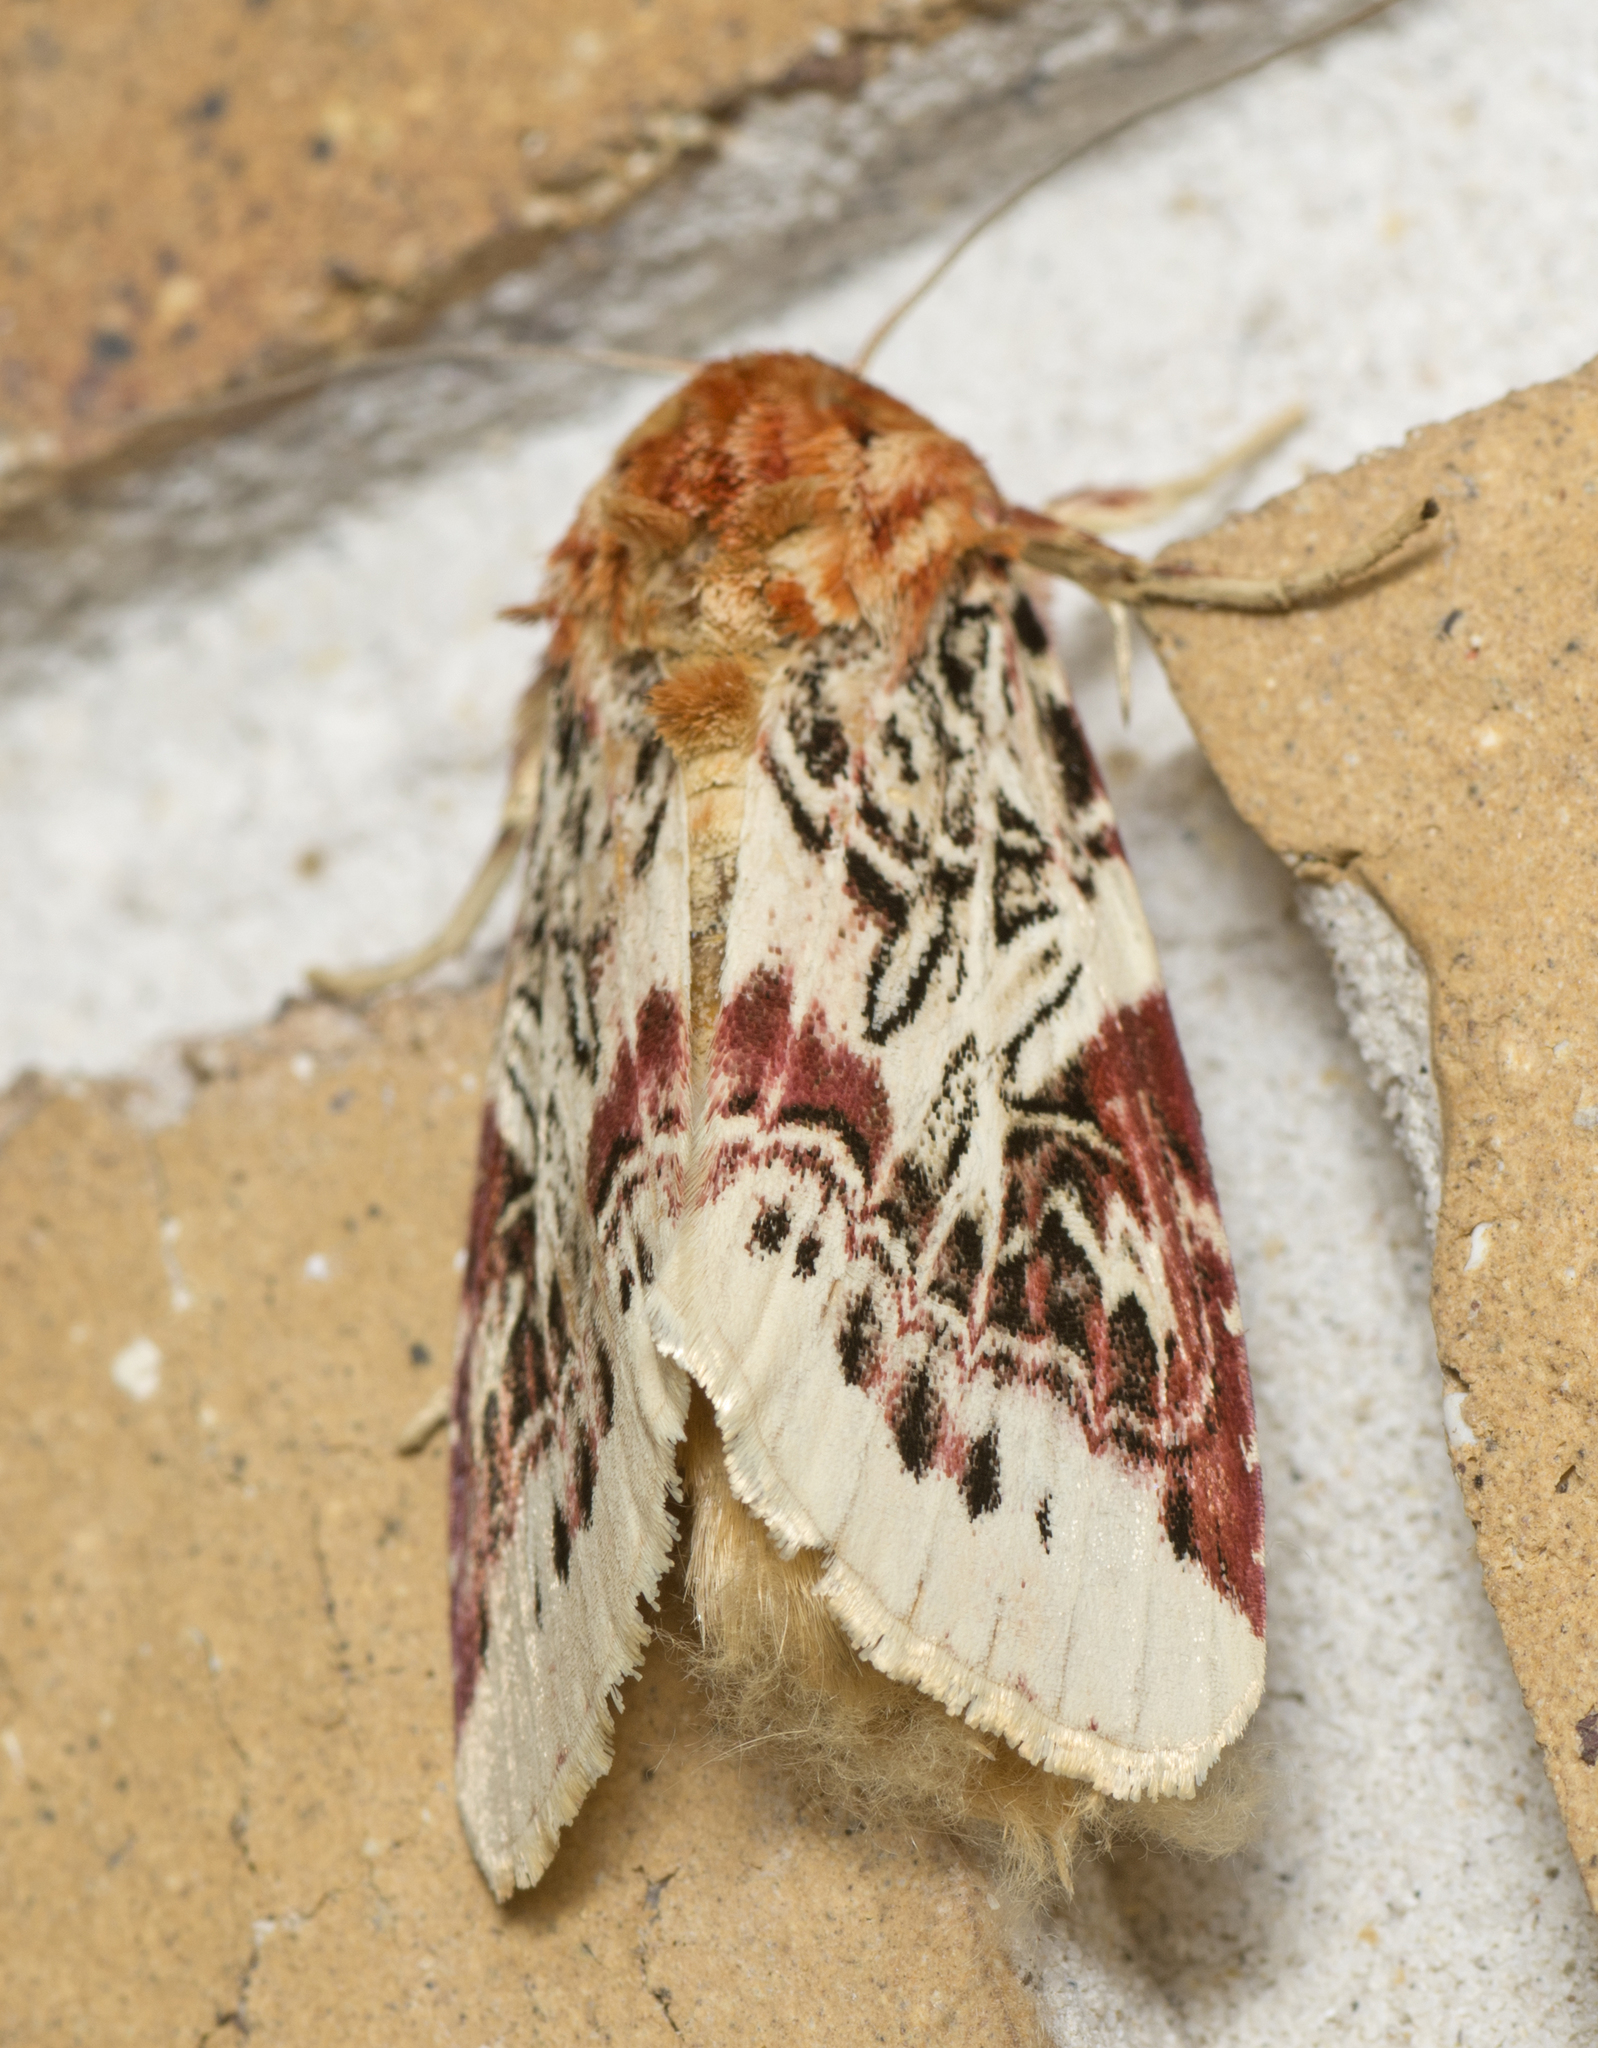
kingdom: Animalia
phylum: Arthropoda
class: Insecta
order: Lepidoptera
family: Noctuidae
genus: Spodoptera
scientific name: Spodoptera picta
